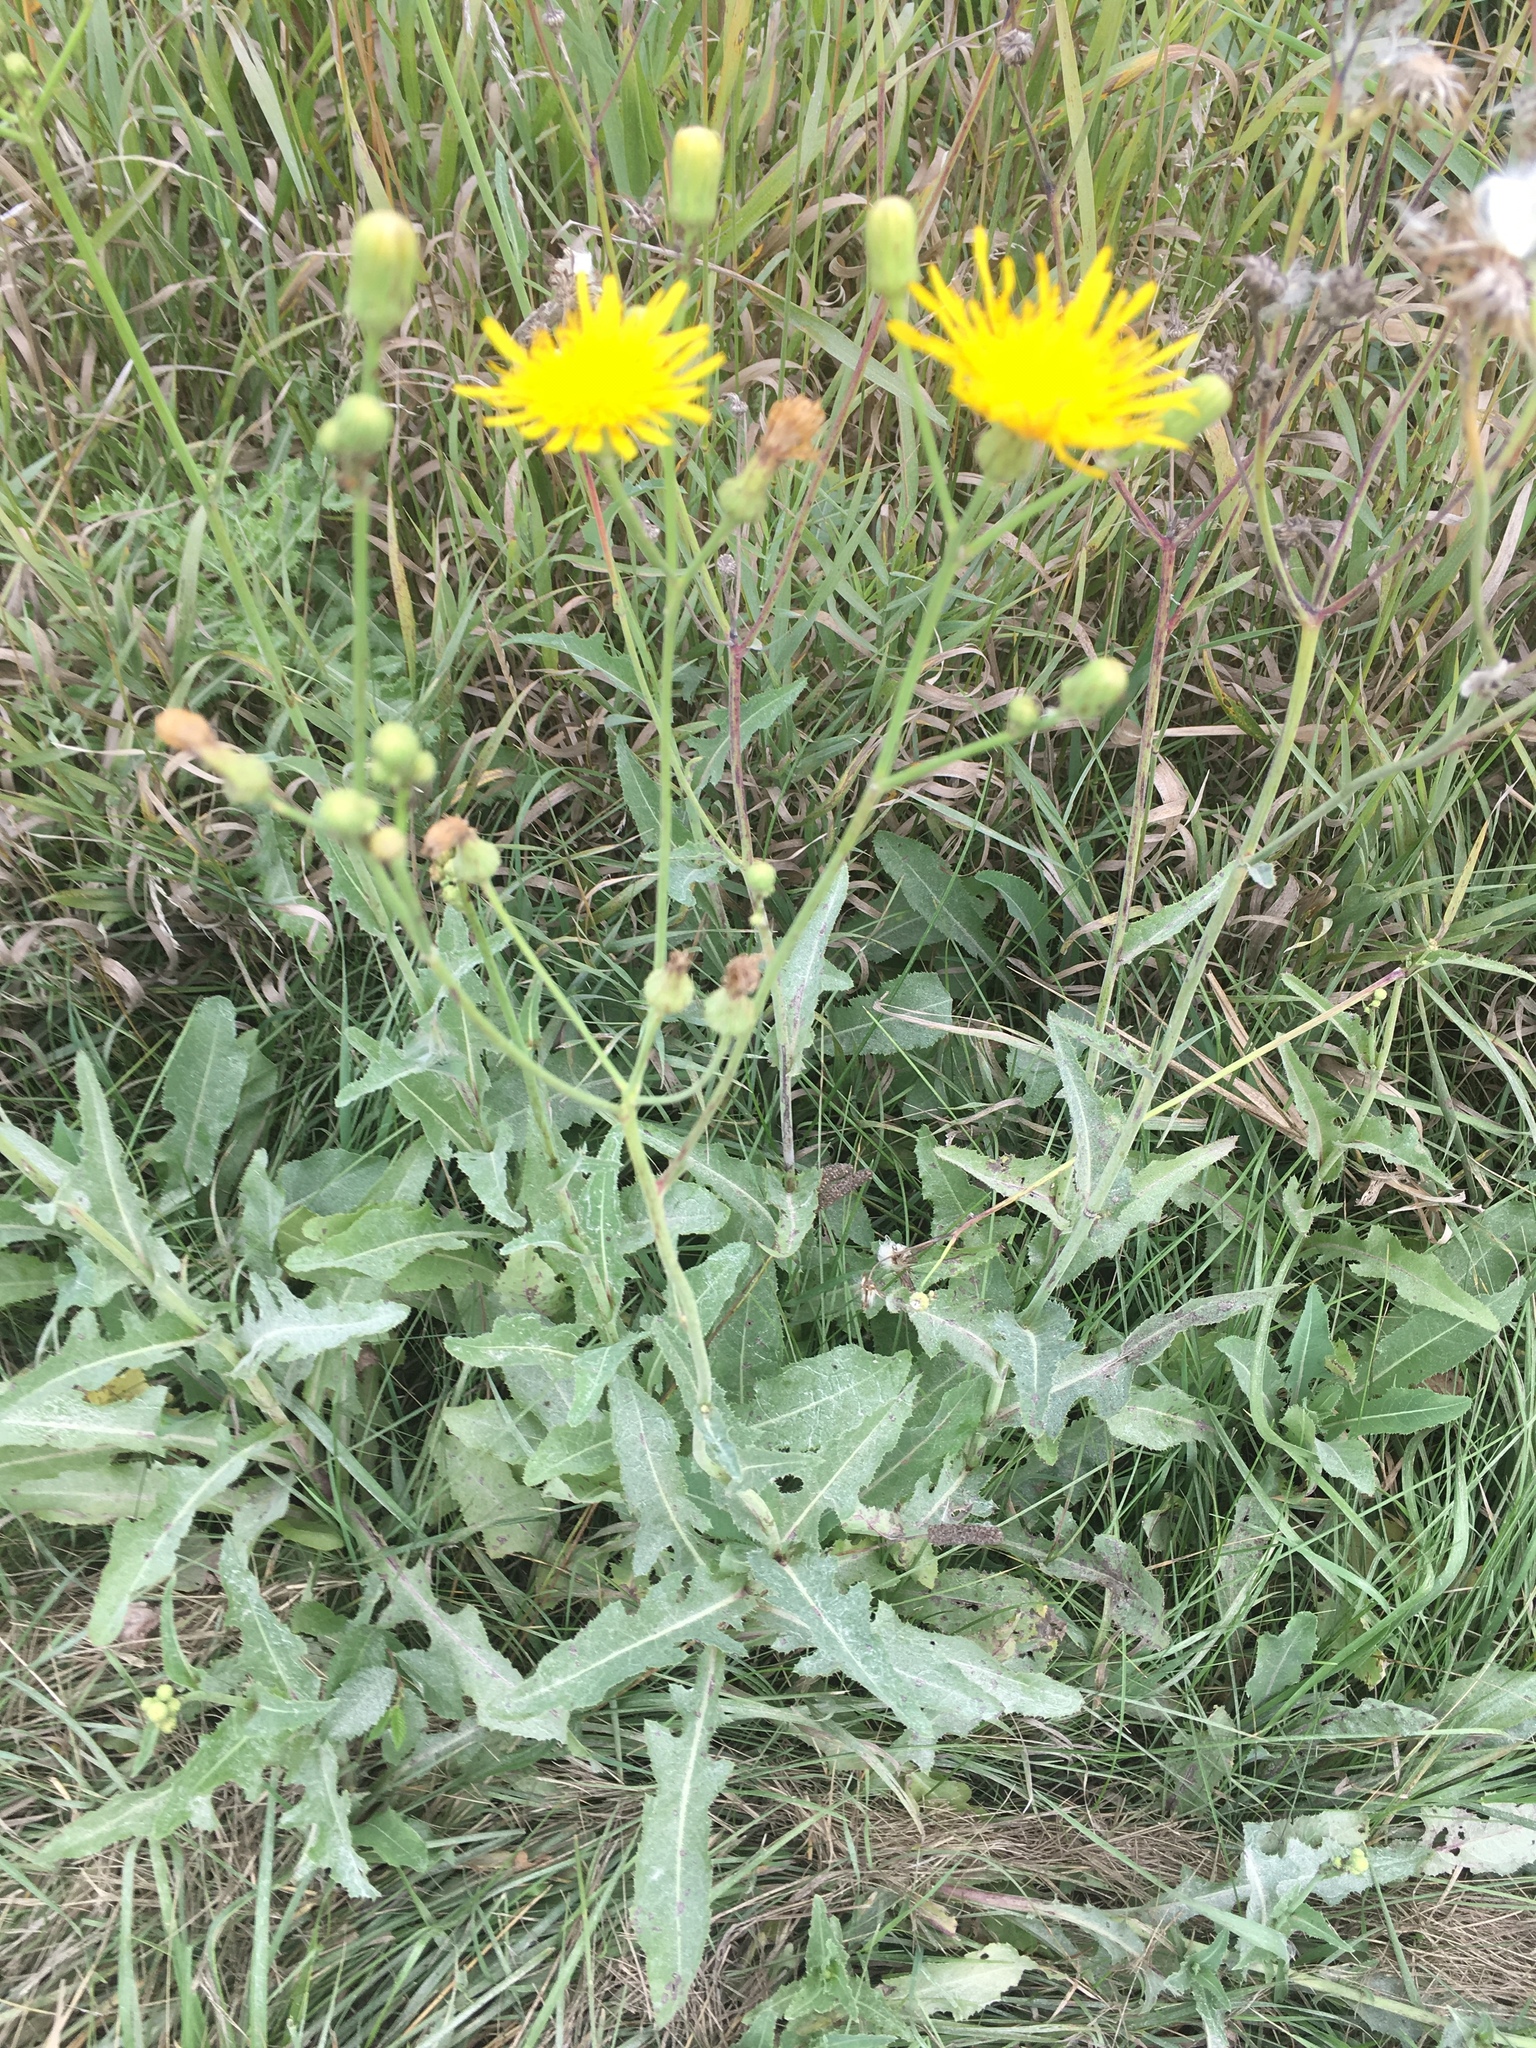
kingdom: Plantae
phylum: Tracheophyta
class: Magnoliopsida
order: Asterales
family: Asteraceae
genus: Sonchus
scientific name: Sonchus arvensis
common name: Perennial sow-thistle
